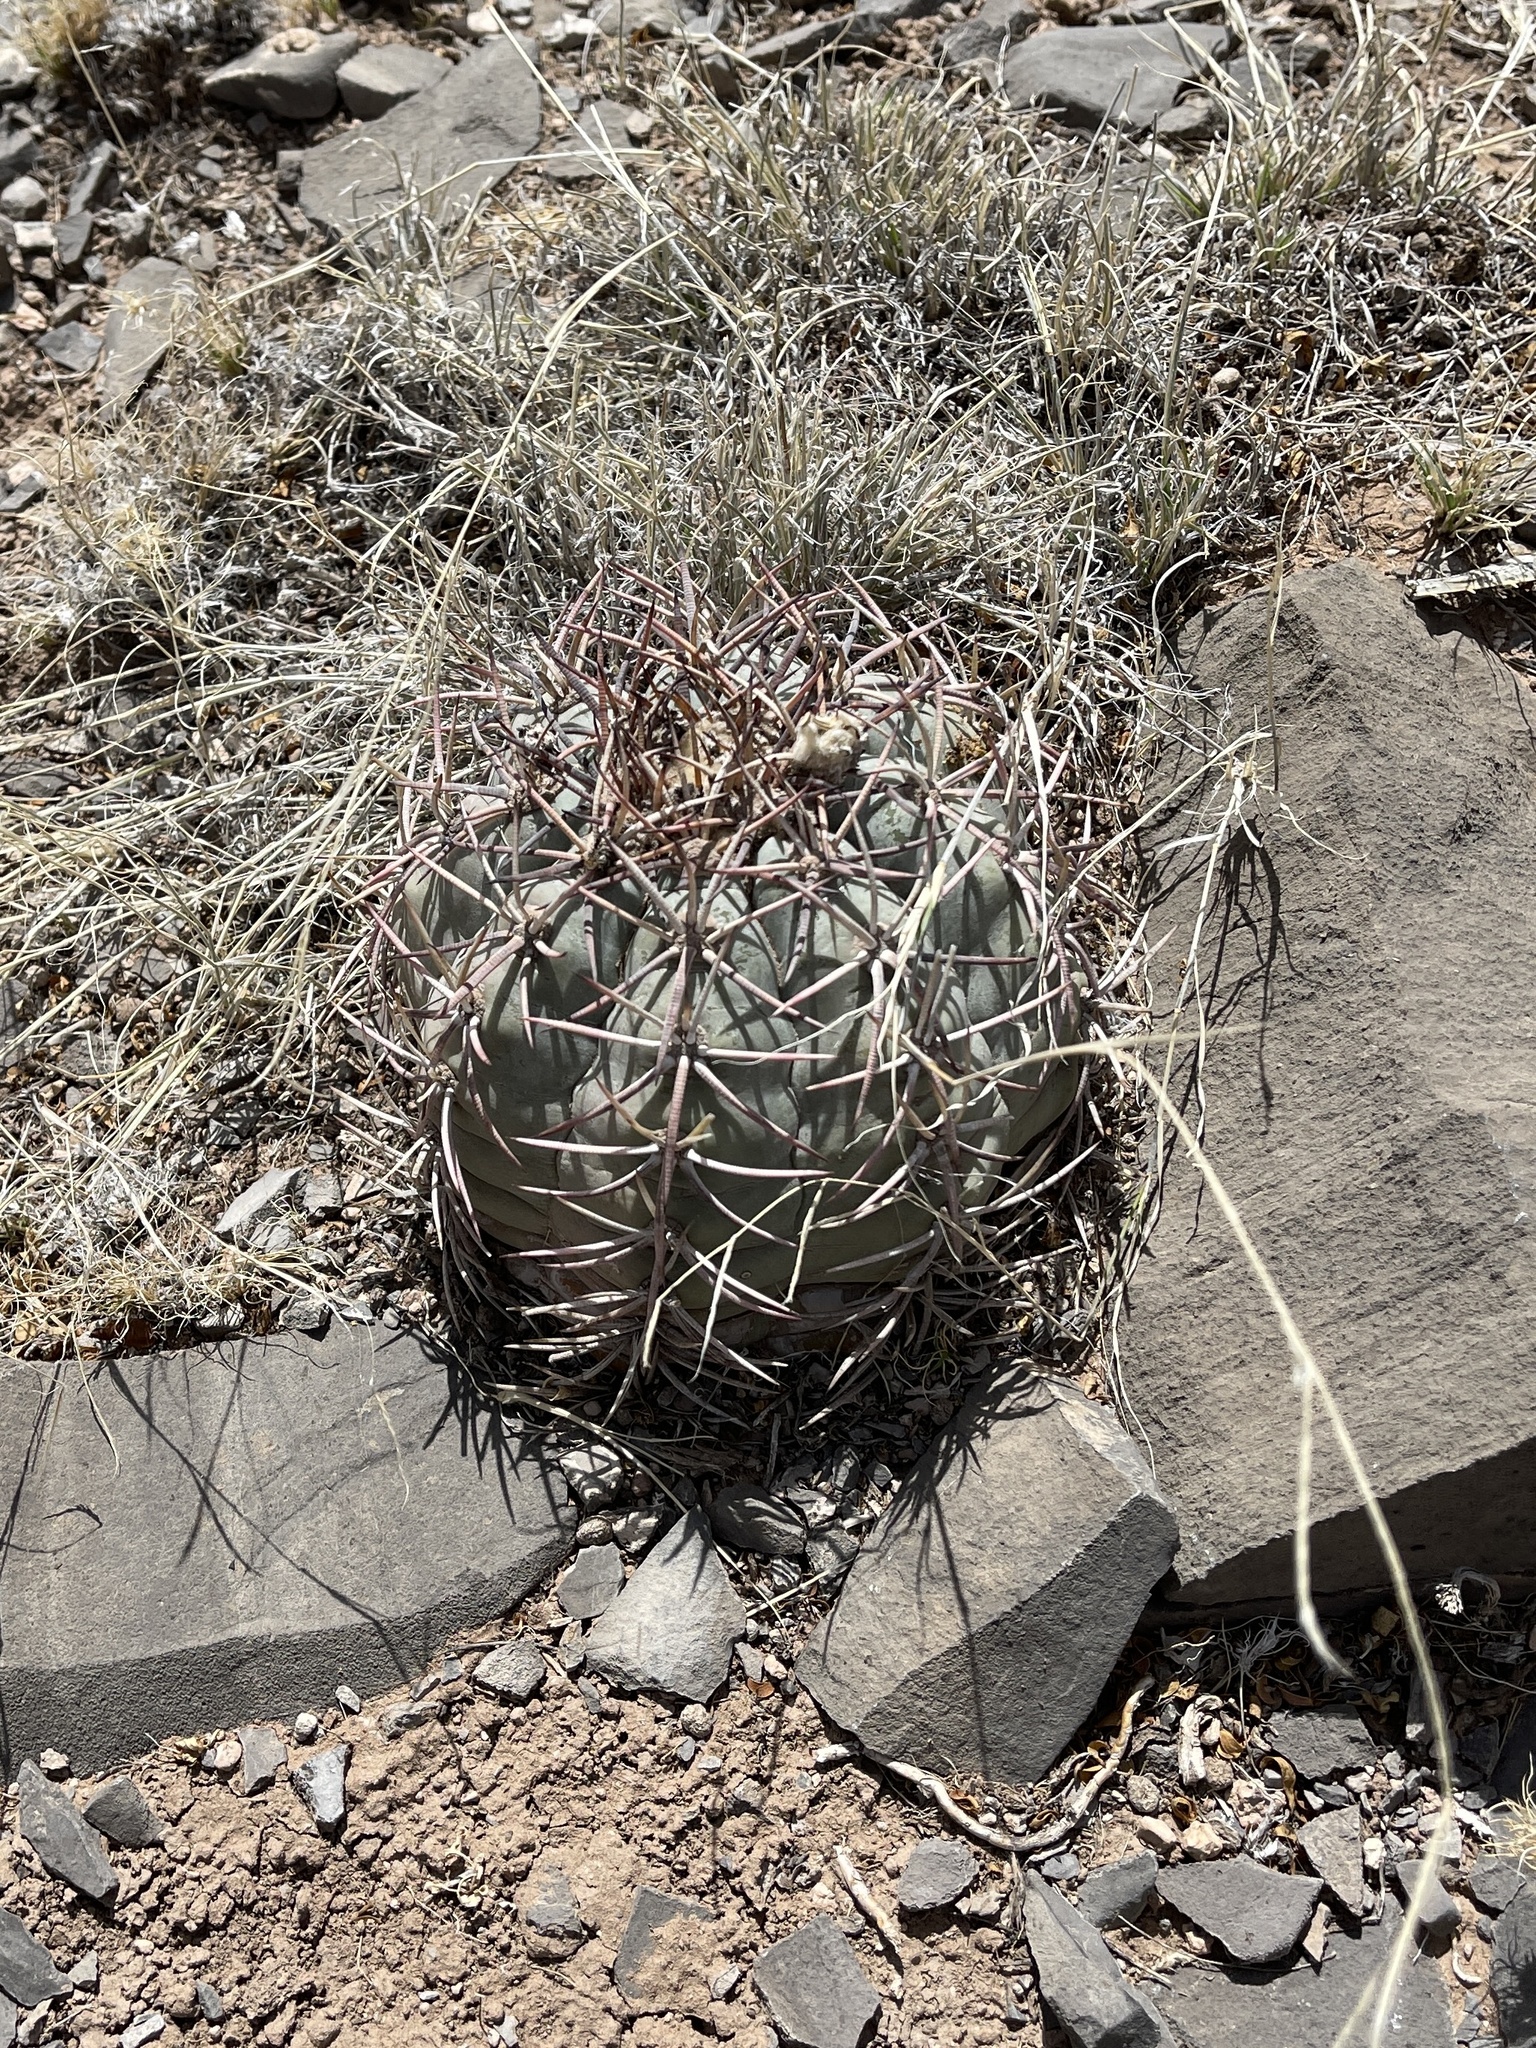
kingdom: Plantae
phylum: Tracheophyta
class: Magnoliopsida
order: Caryophyllales
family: Cactaceae
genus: Echinocactus
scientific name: Echinocactus horizonthalonius
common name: Devilshead
